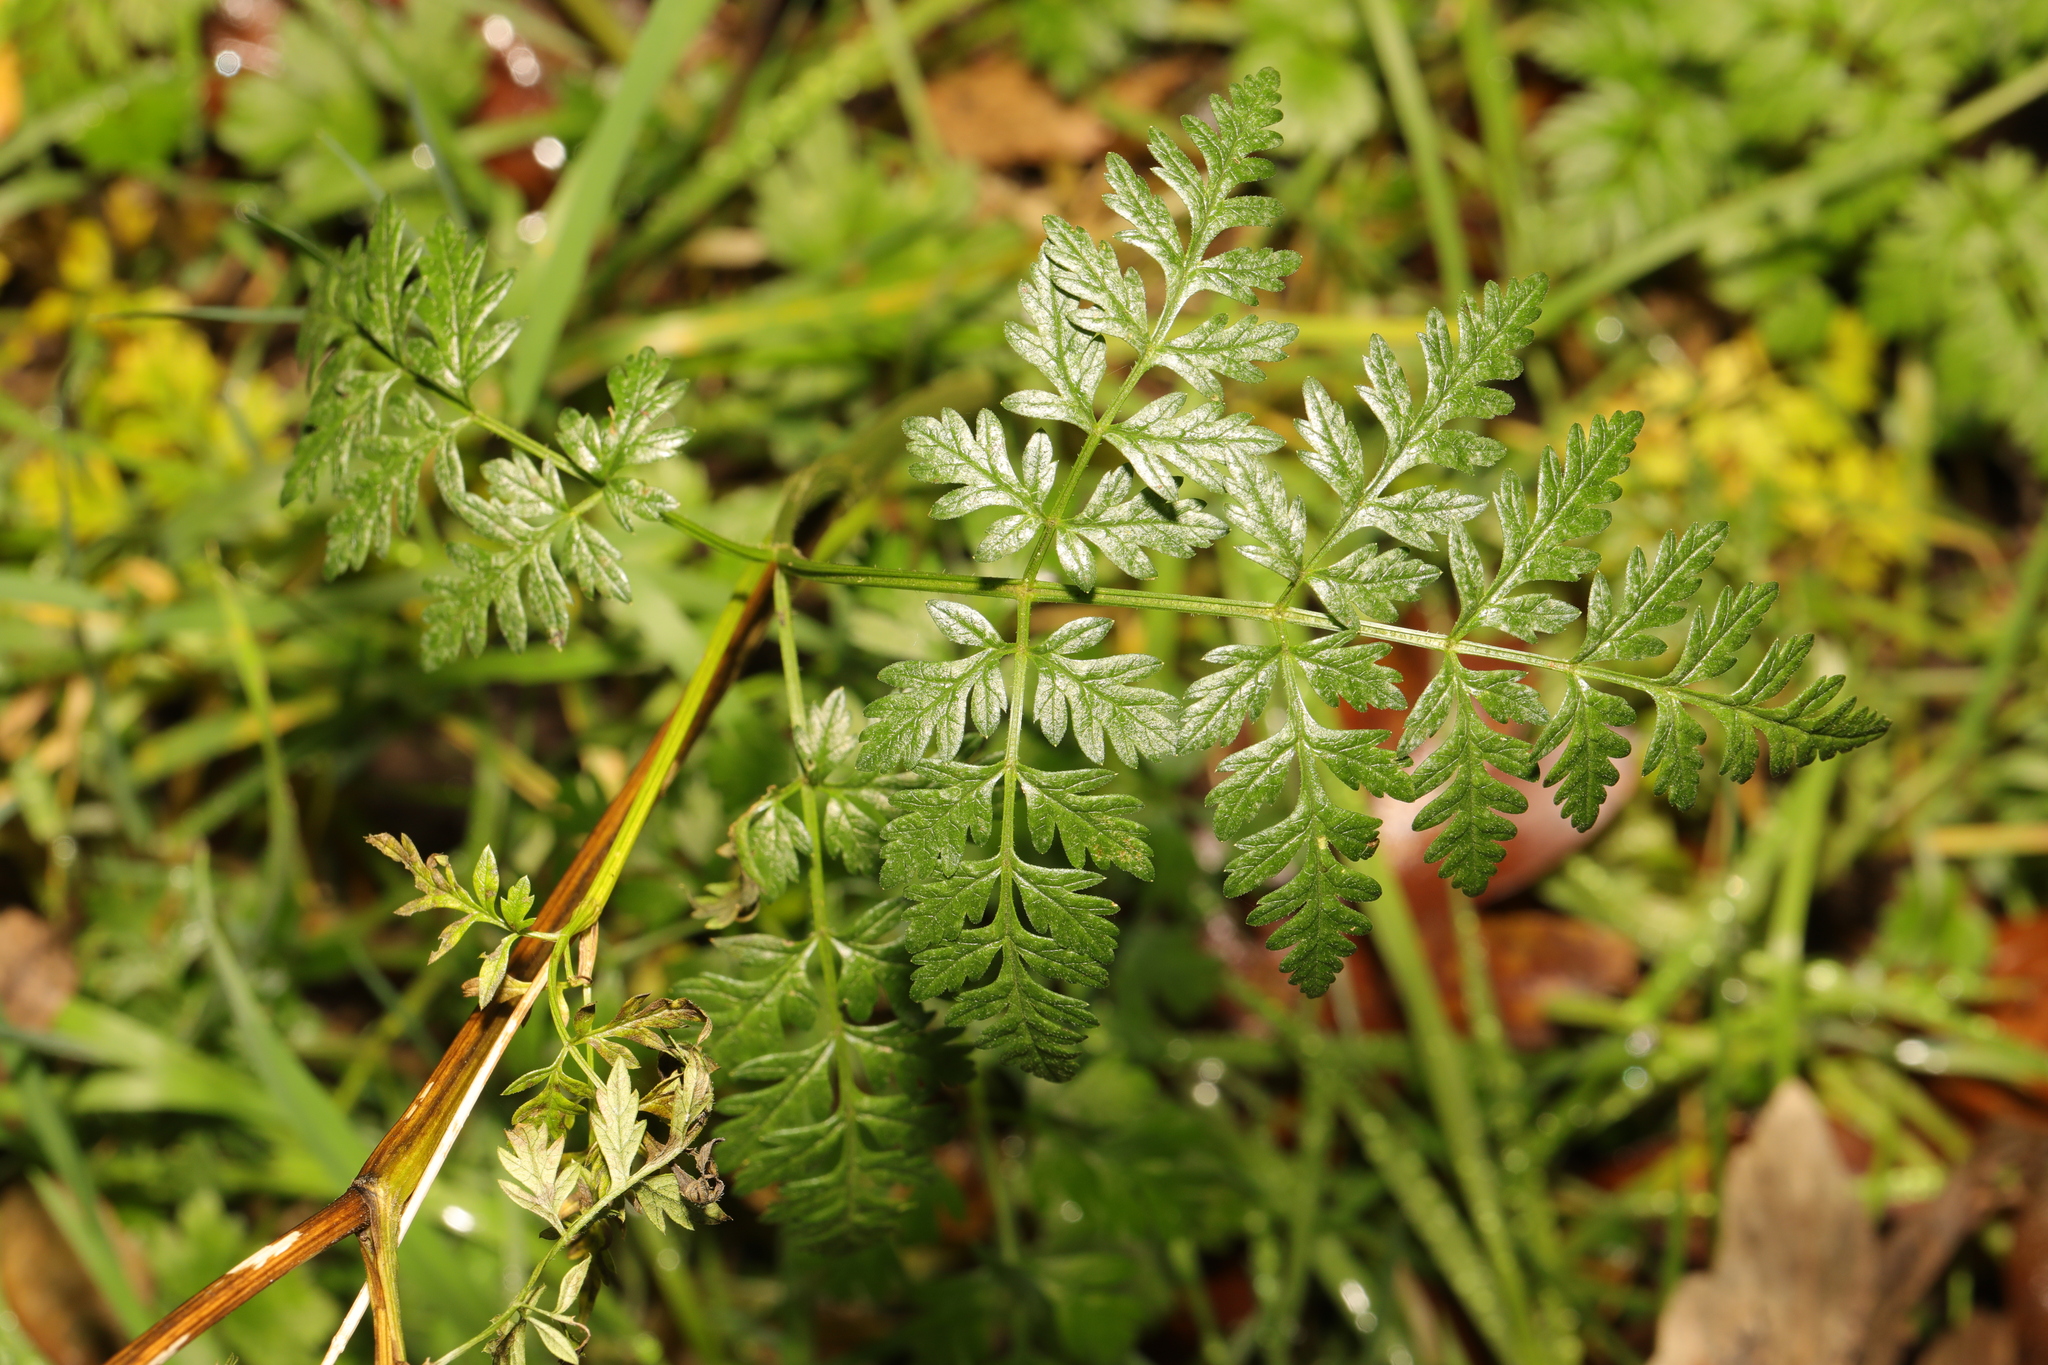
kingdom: Plantae
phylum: Tracheophyta
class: Magnoliopsida
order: Apiales
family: Apiaceae
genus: Anthriscus
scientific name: Anthriscus sylvestris
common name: Cow parsley
